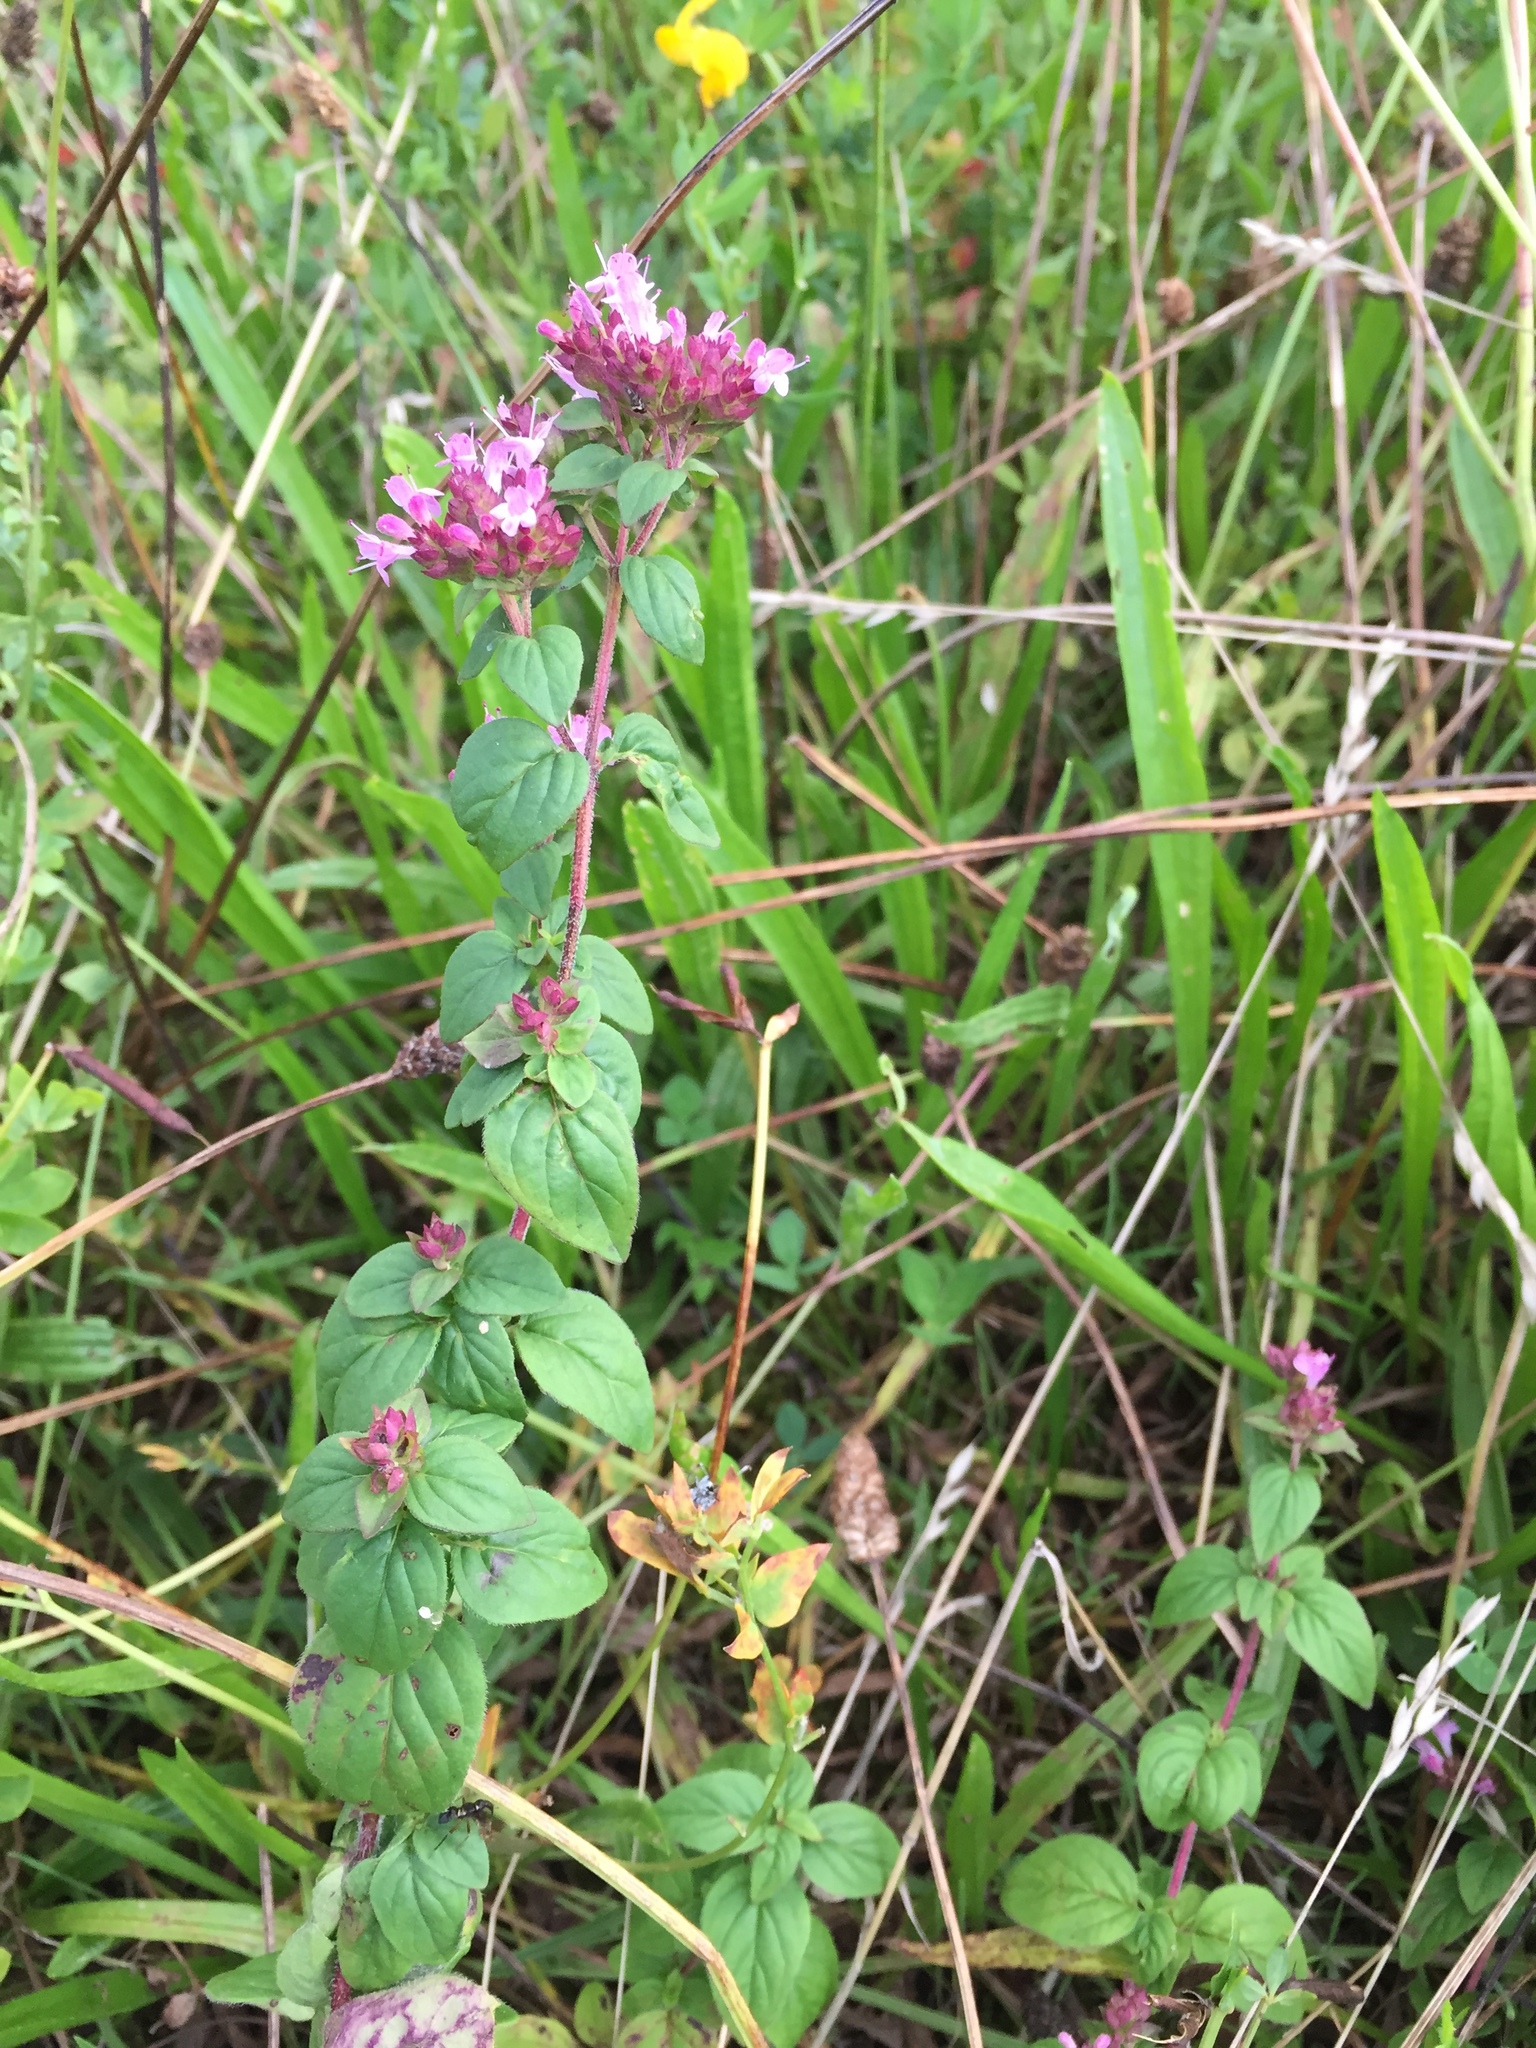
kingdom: Plantae
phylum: Tracheophyta
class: Magnoliopsida
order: Lamiales
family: Lamiaceae
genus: Origanum
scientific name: Origanum vulgare
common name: Wild marjoram
